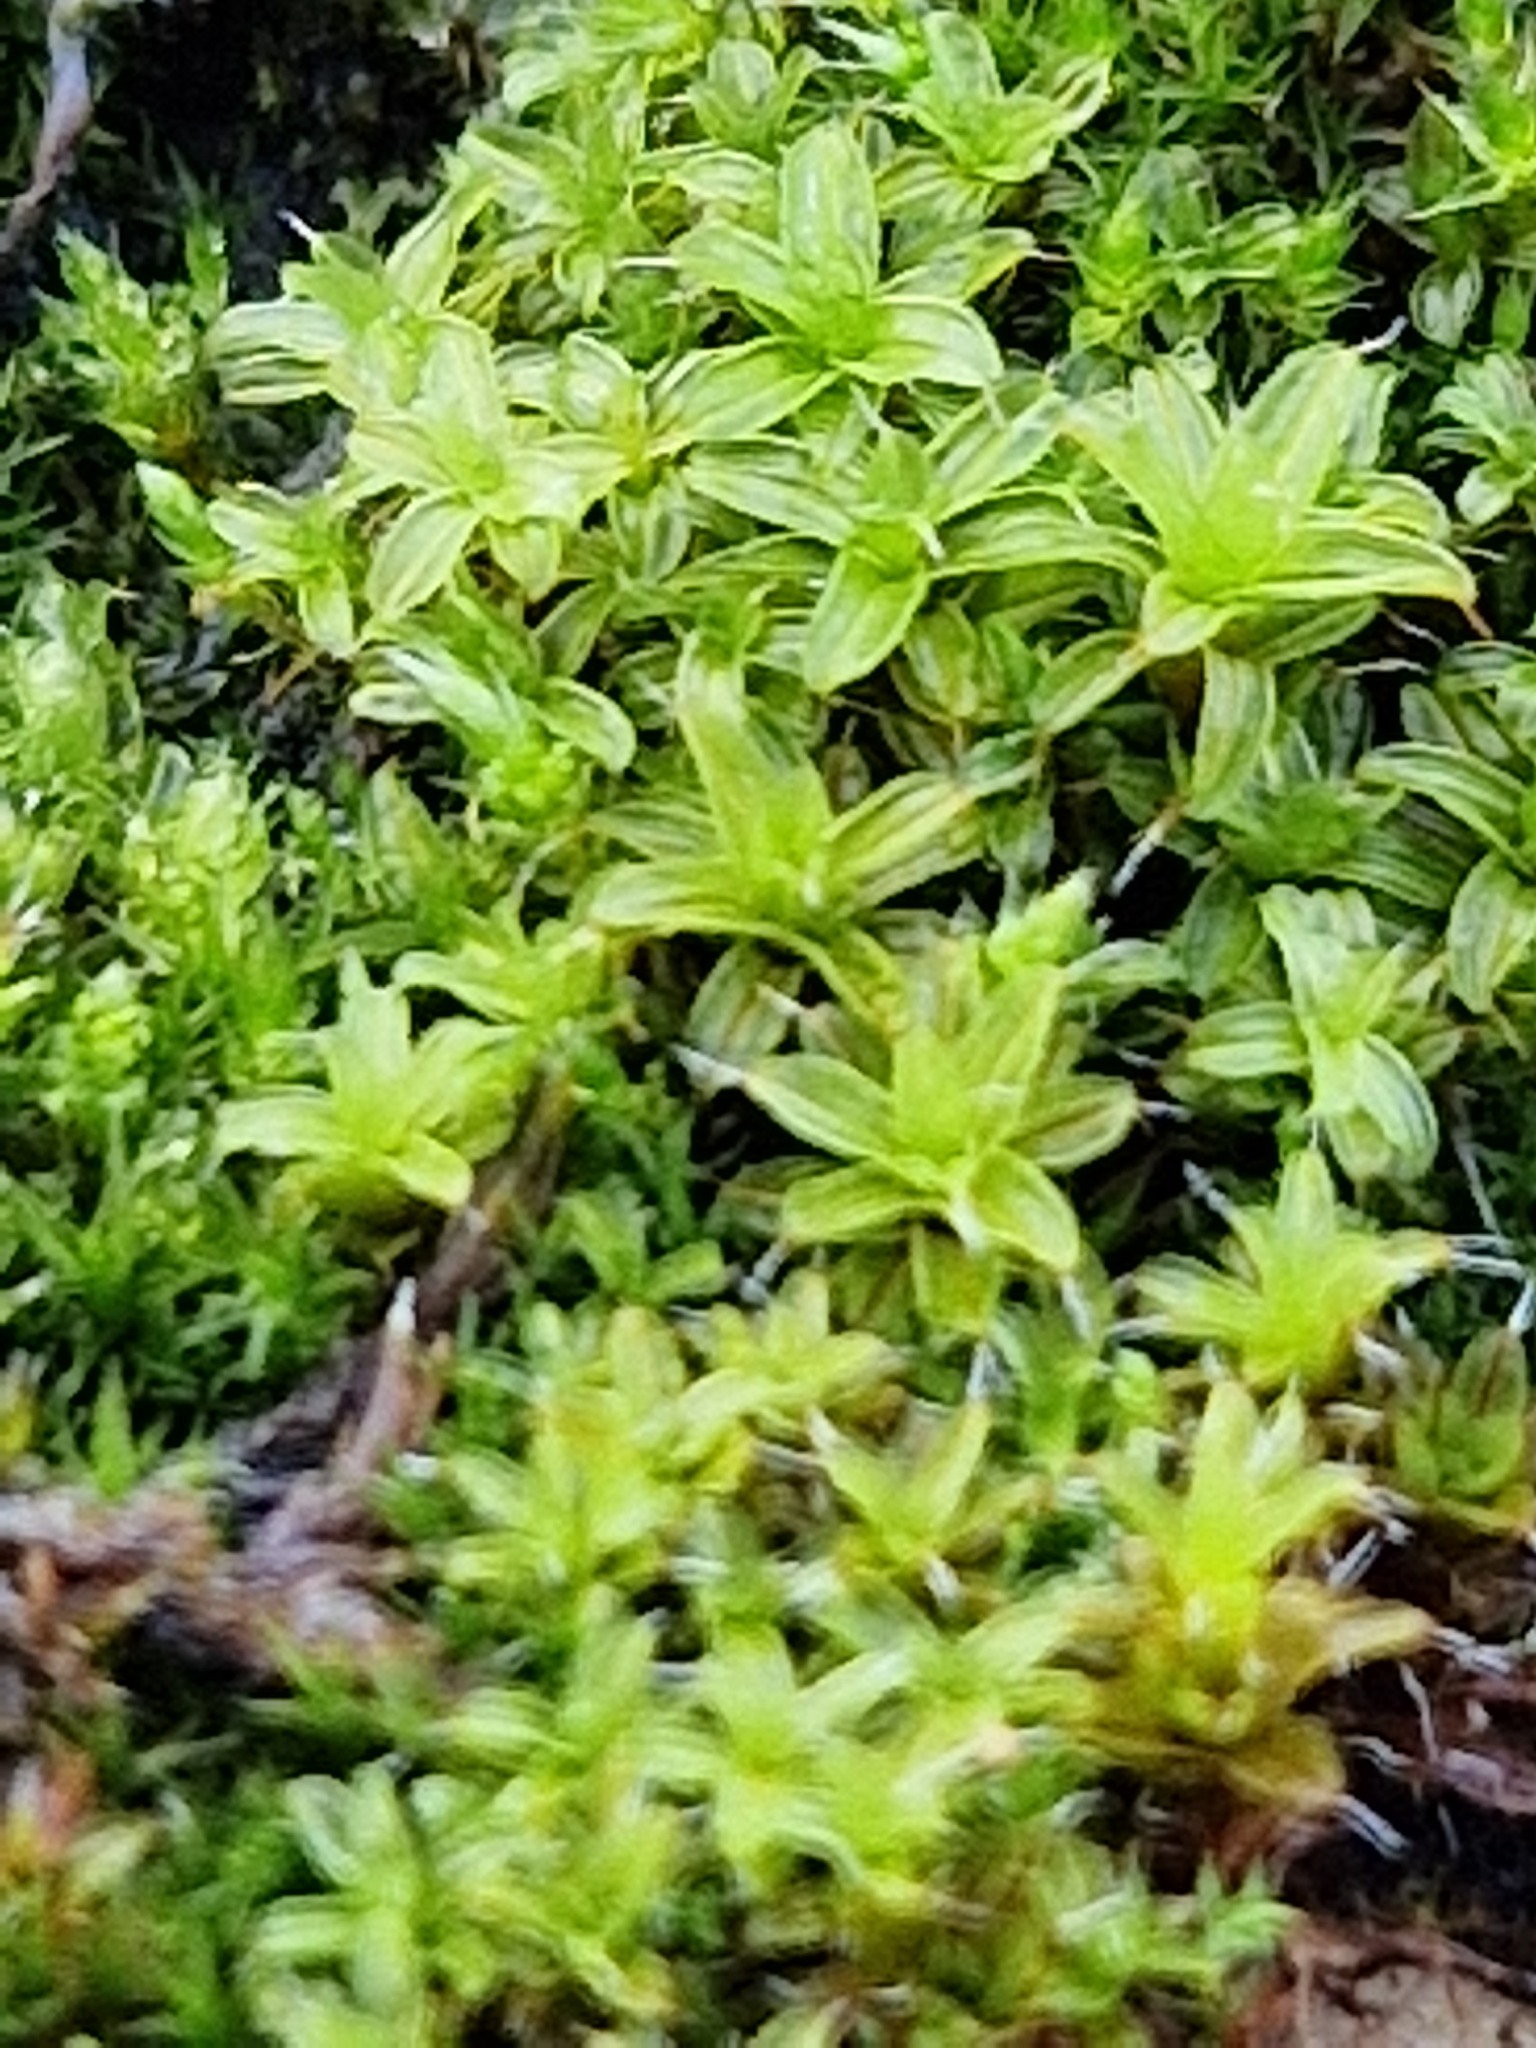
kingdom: Plantae
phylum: Bryophyta
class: Bryopsida
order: Pottiales
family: Pottiaceae
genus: Syntrichia
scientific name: Syntrichia ruralis
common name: Sidewalk screw moss
